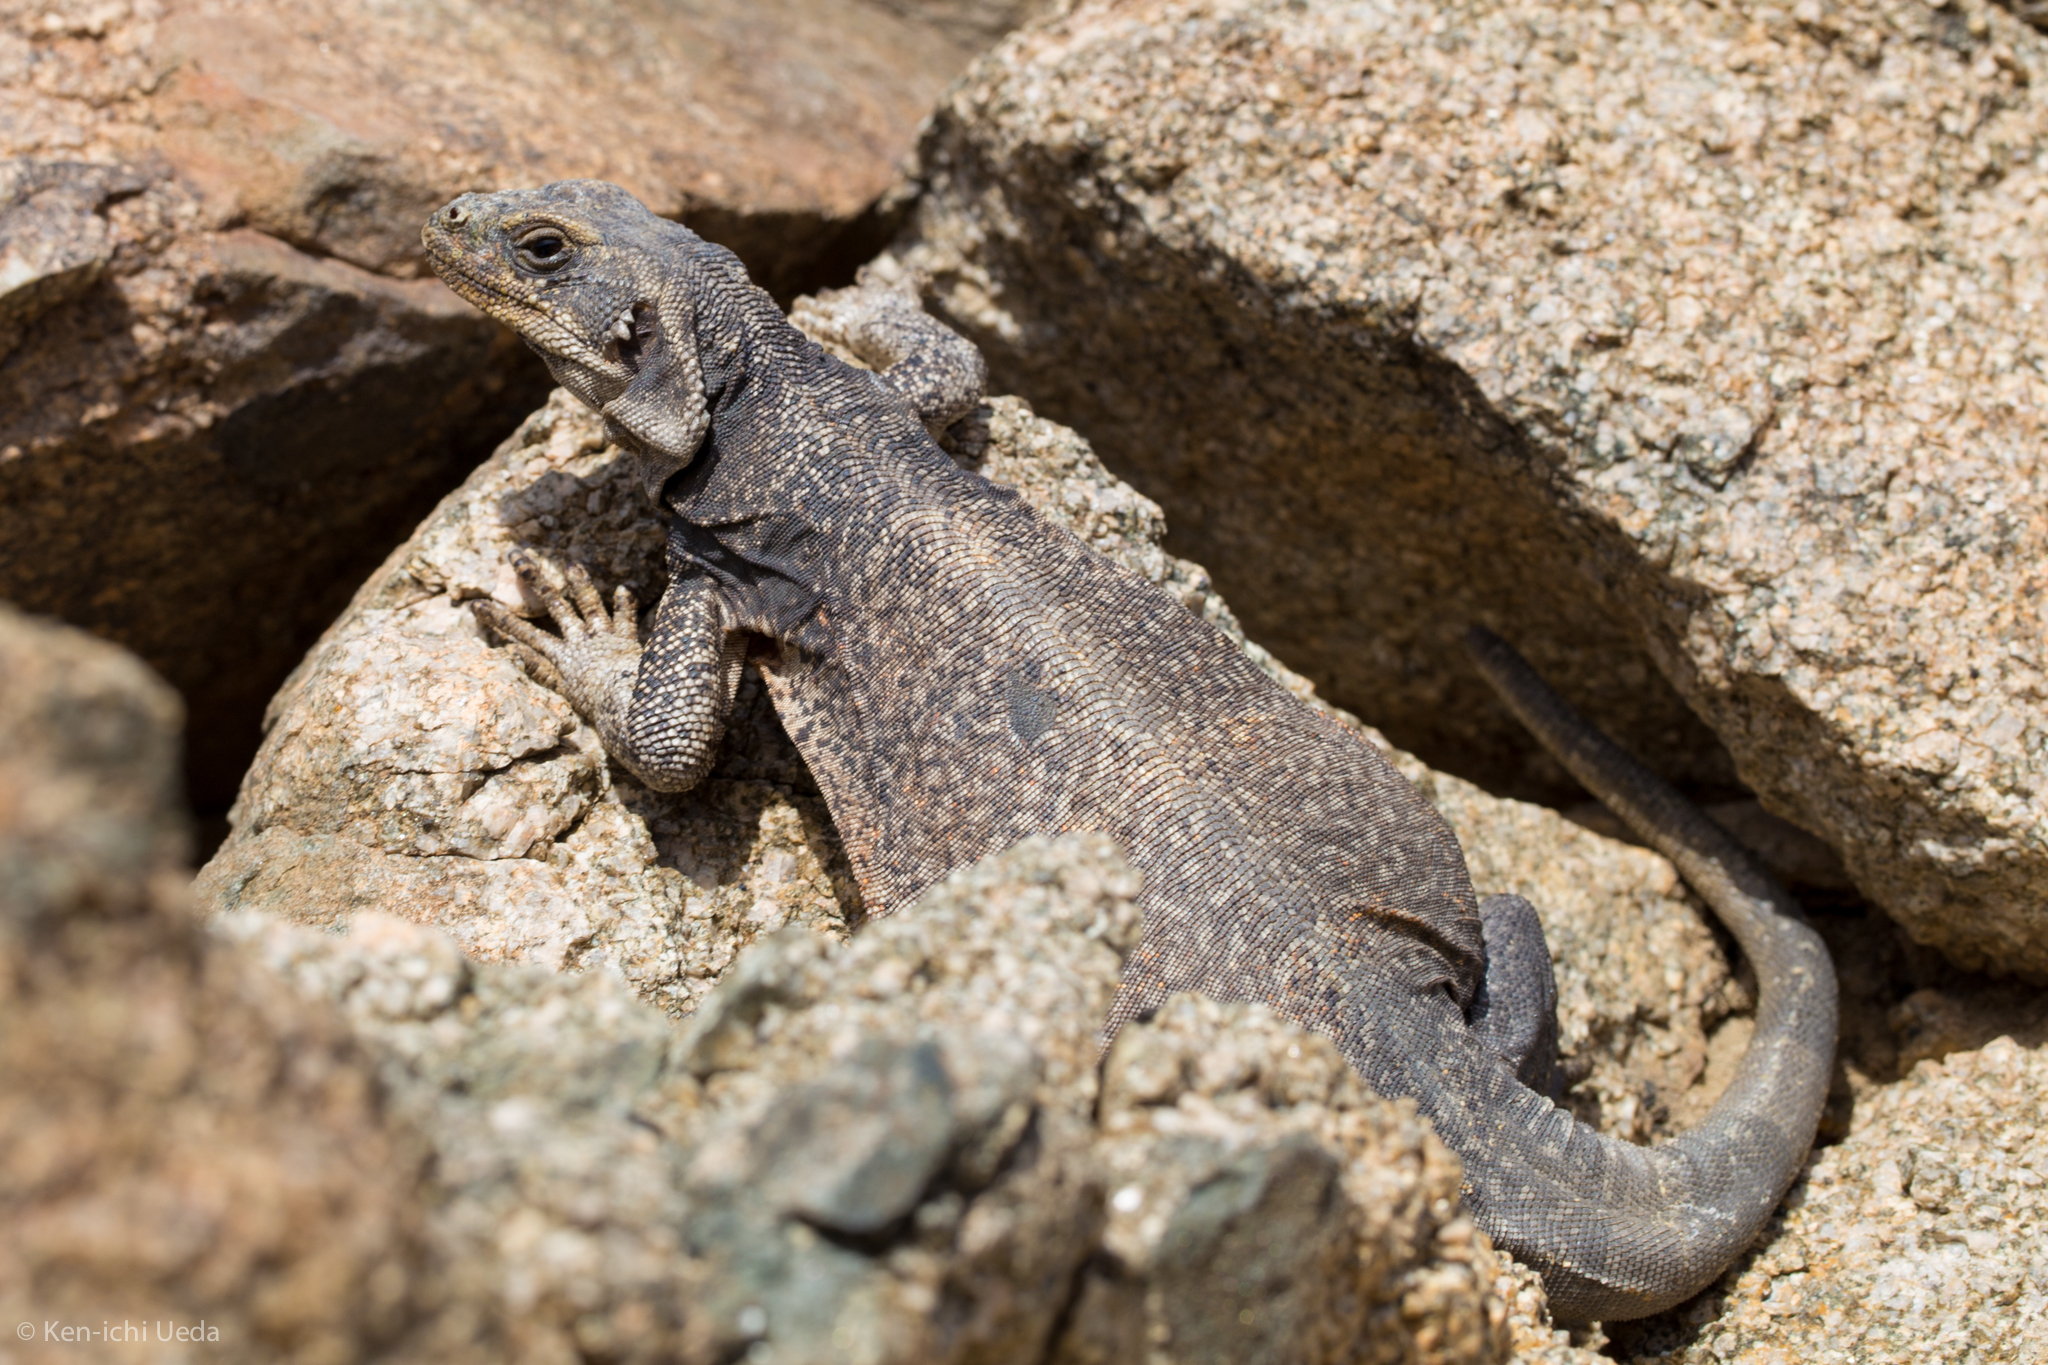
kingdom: Animalia
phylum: Chordata
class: Squamata
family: Iguanidae
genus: Sauromalus
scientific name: Sauromalus ater
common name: Northern chuckwalla
